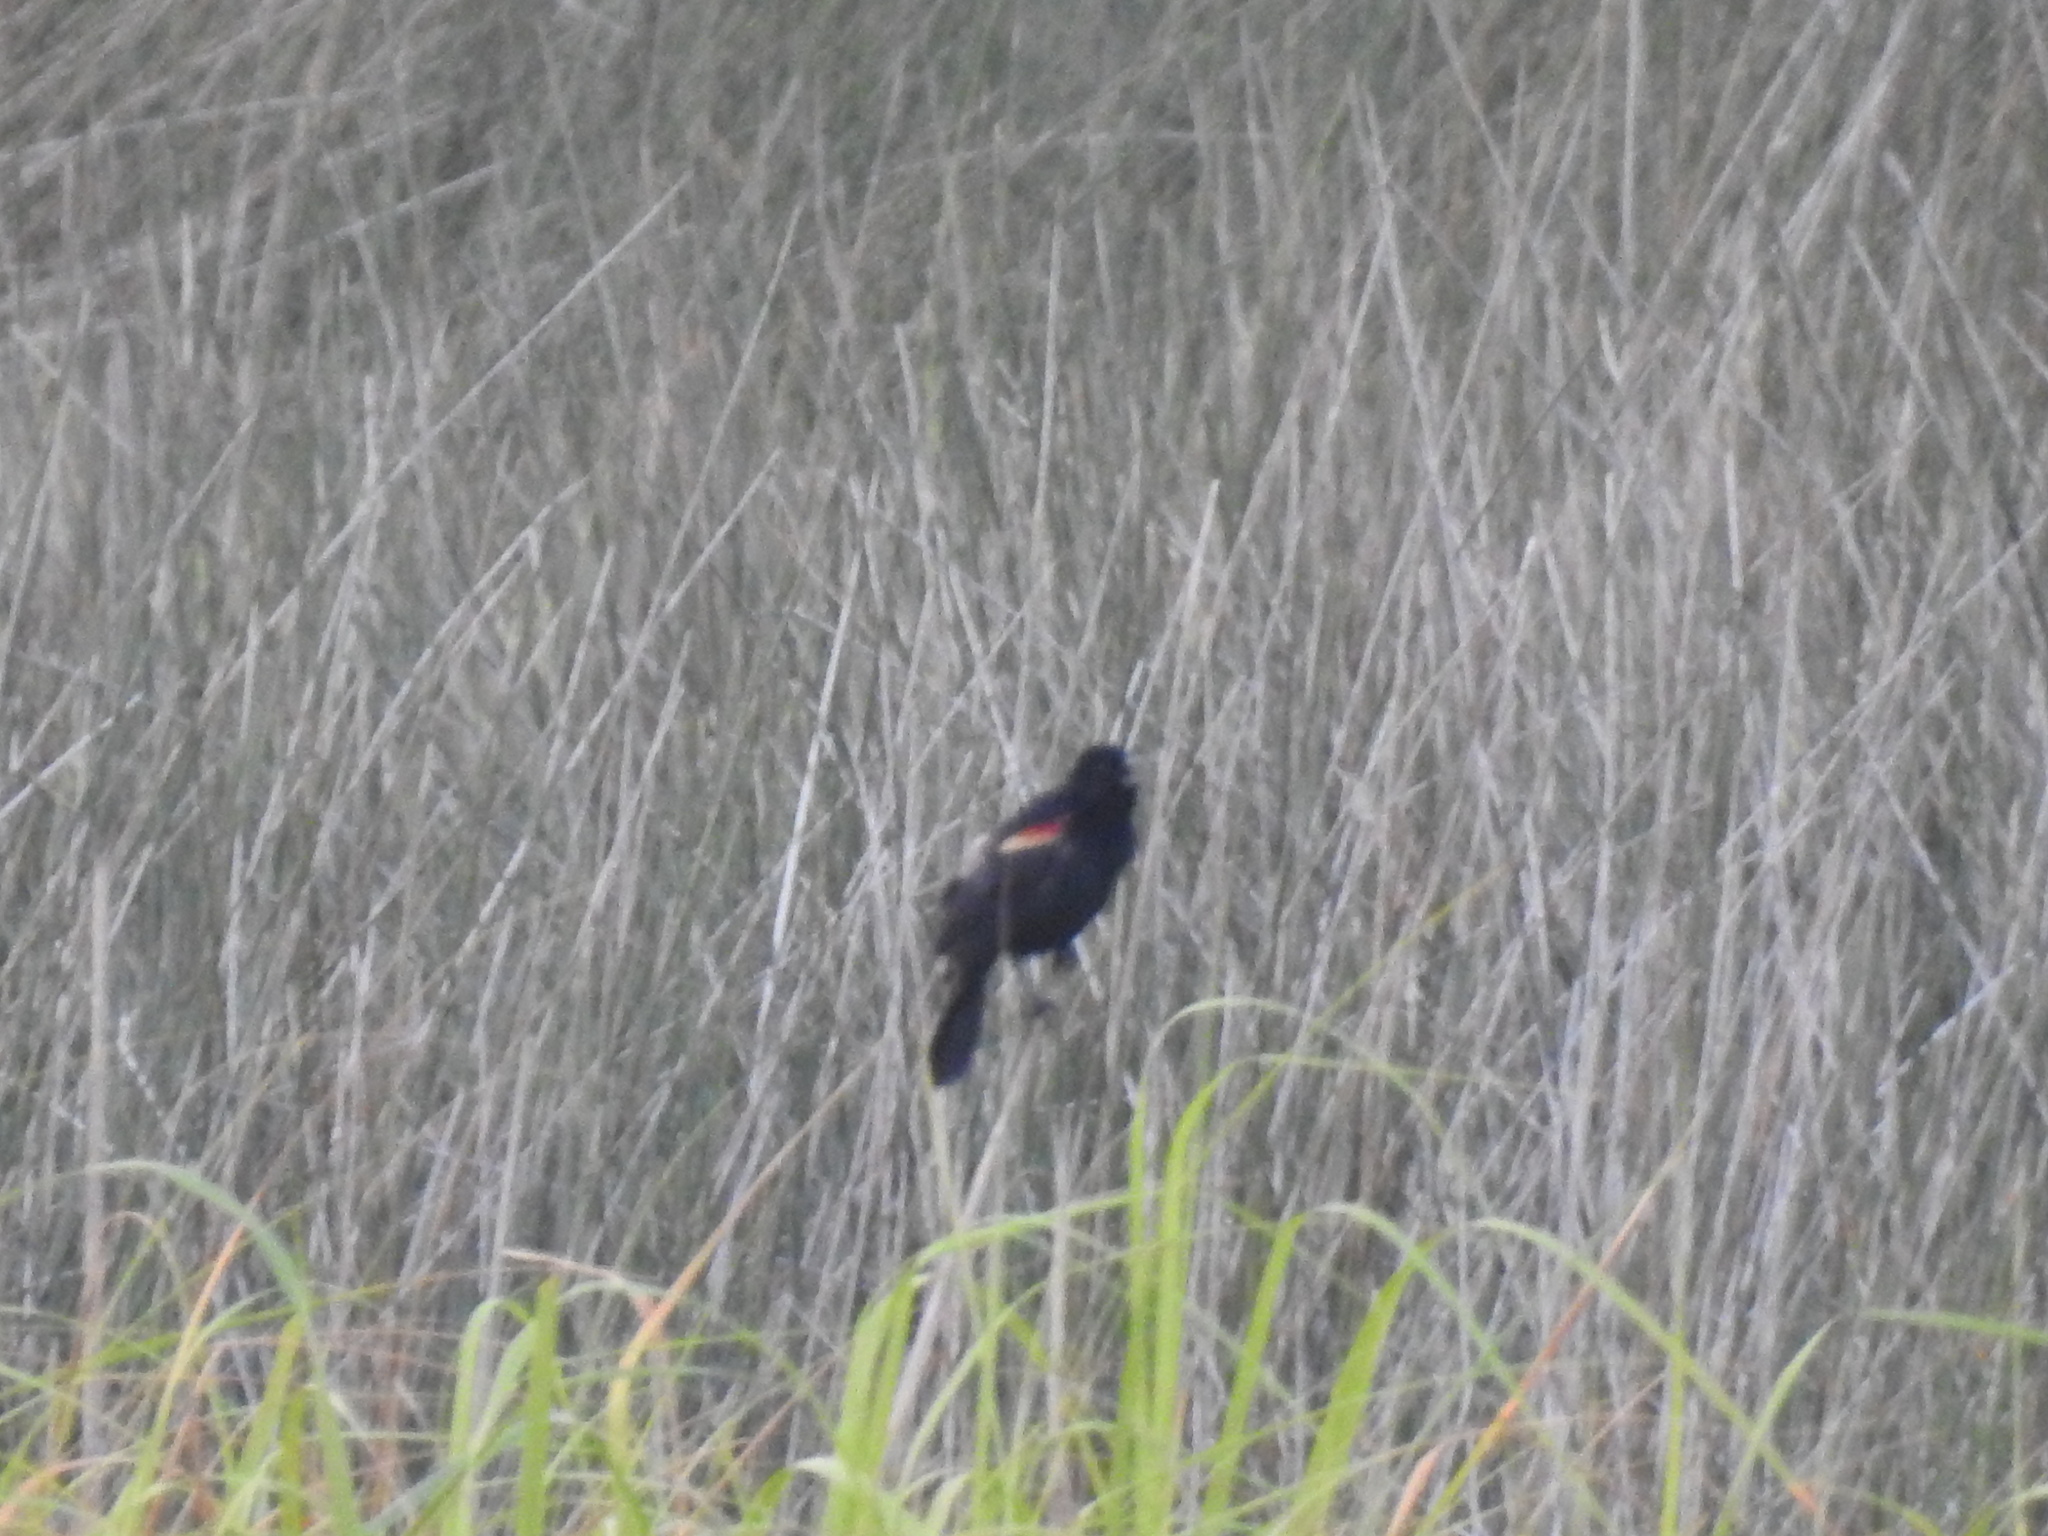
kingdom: Animalia
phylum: Chordata
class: Aves
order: Passeriformes
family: Icteridae
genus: Agelaius
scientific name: Agelaius phoeniceus
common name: Red-winged blackbird
